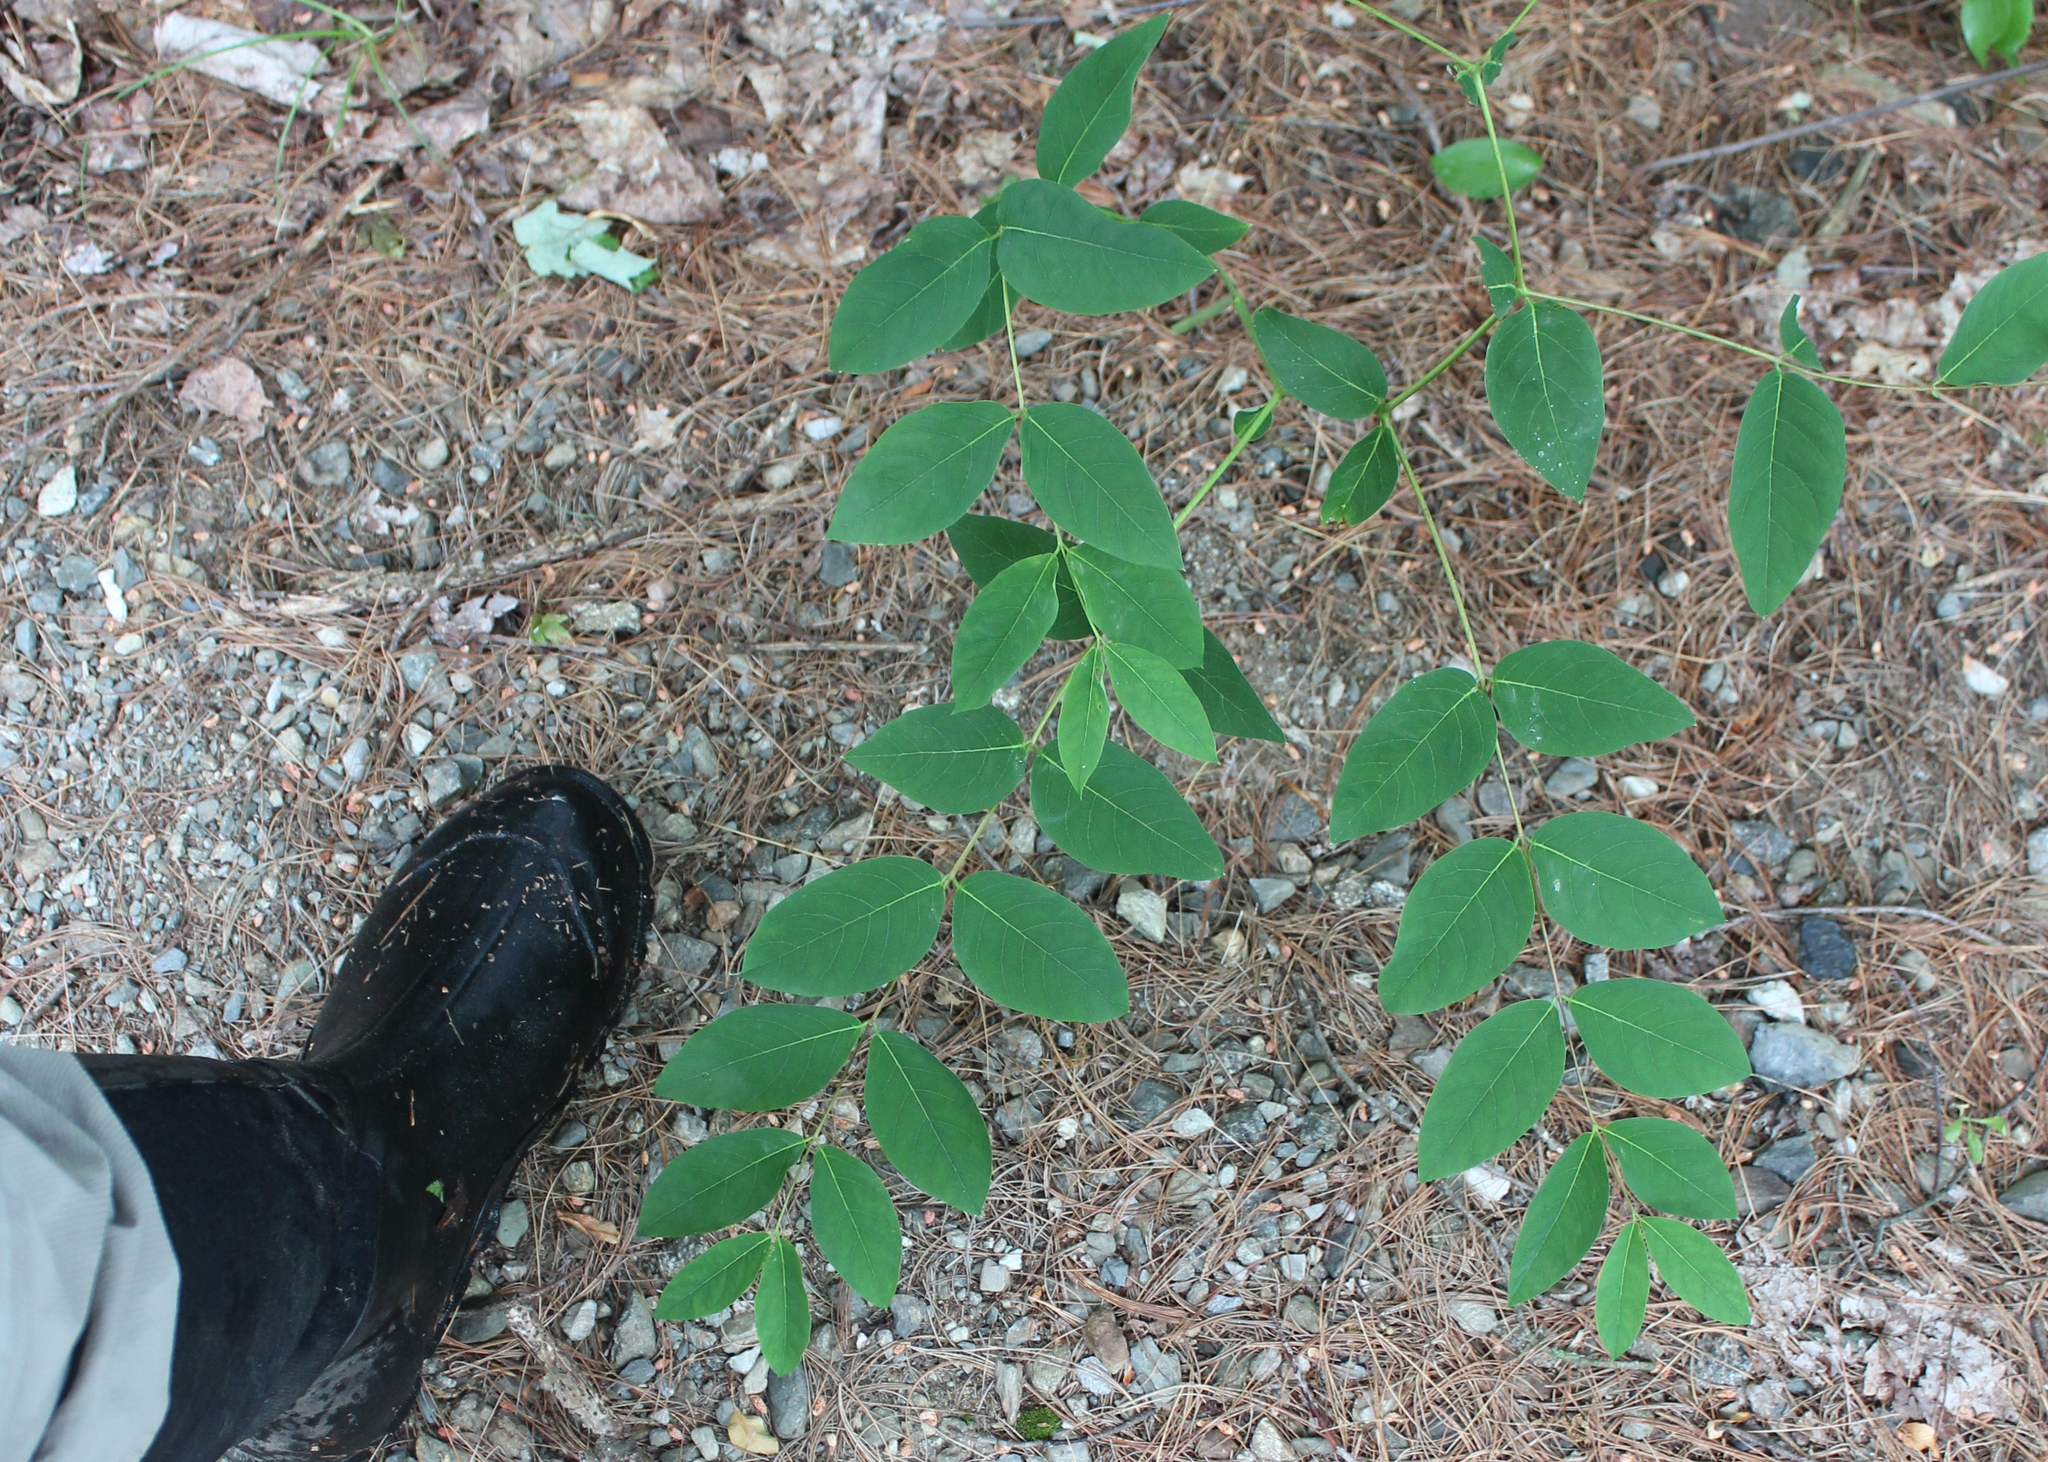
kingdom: Plantae
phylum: Tracheophyta
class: Magnoliopsida
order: Gentianales
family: Apocynaceae
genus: Apocynum
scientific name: Apocynum androsaemifolium
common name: Spreading dogbane
